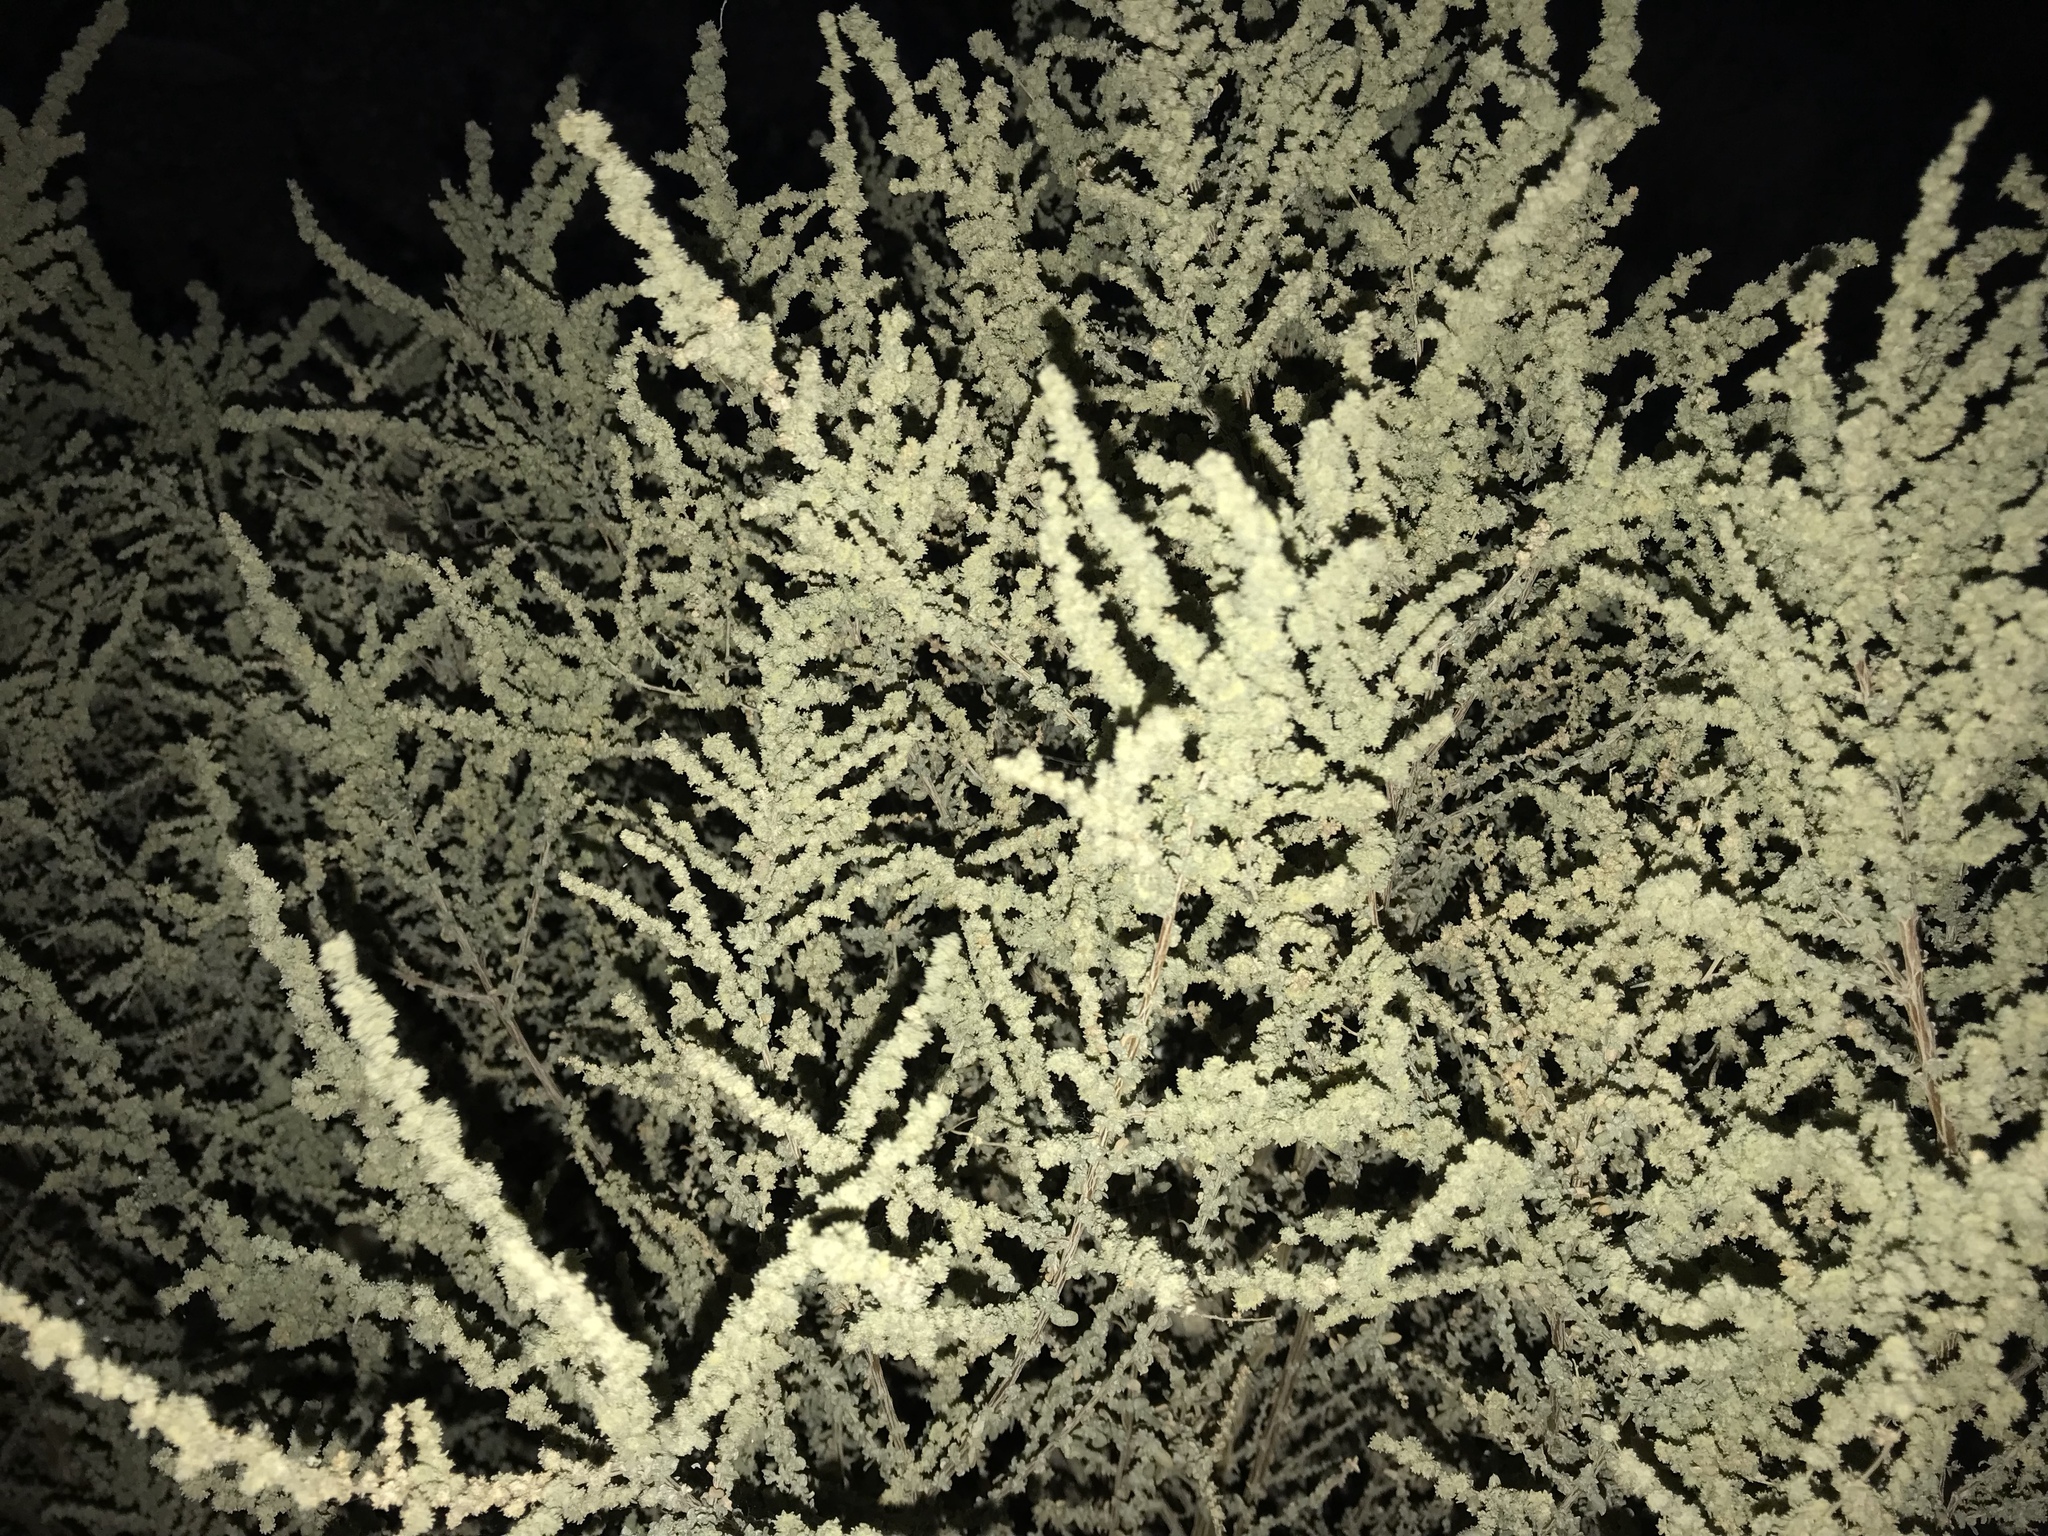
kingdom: Plantae
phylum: Tracheophyta
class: Magnoliopsida
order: Caryophyllales
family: Amaranthaceae
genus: Atriplex
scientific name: Atriplex canescens
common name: Four-wing saltbush
